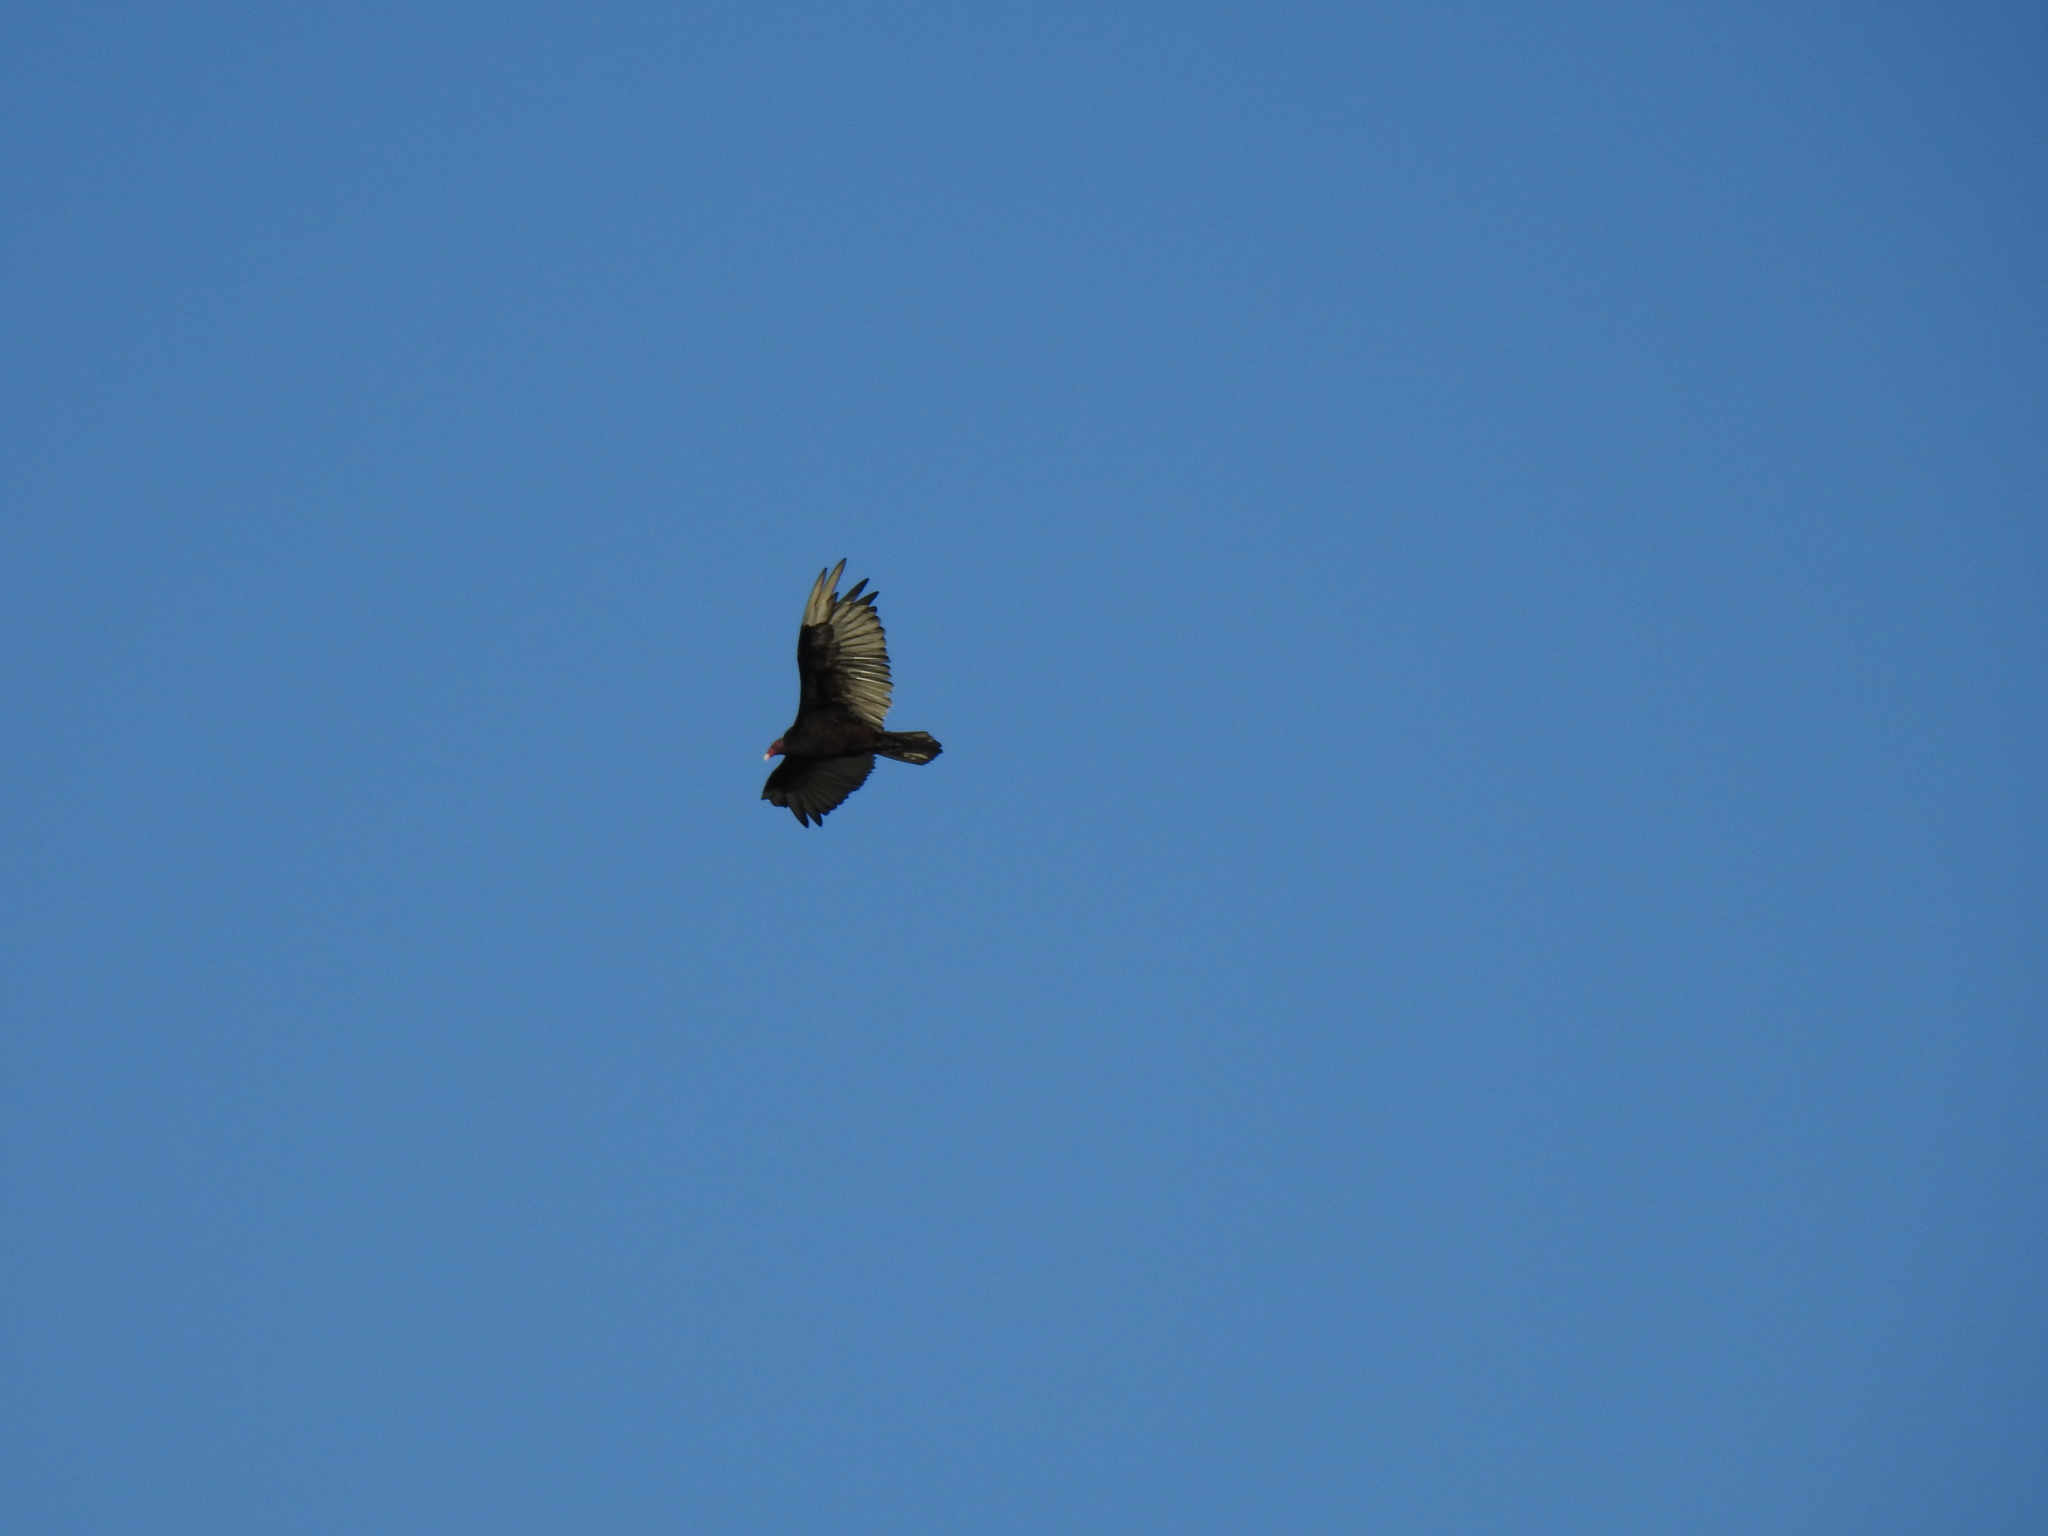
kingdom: Animalia
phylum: Chordata
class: Aves
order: Accipitriformes
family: Cathartidae
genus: Cathartes
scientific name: Cathartes aura
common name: Turkey vulture
